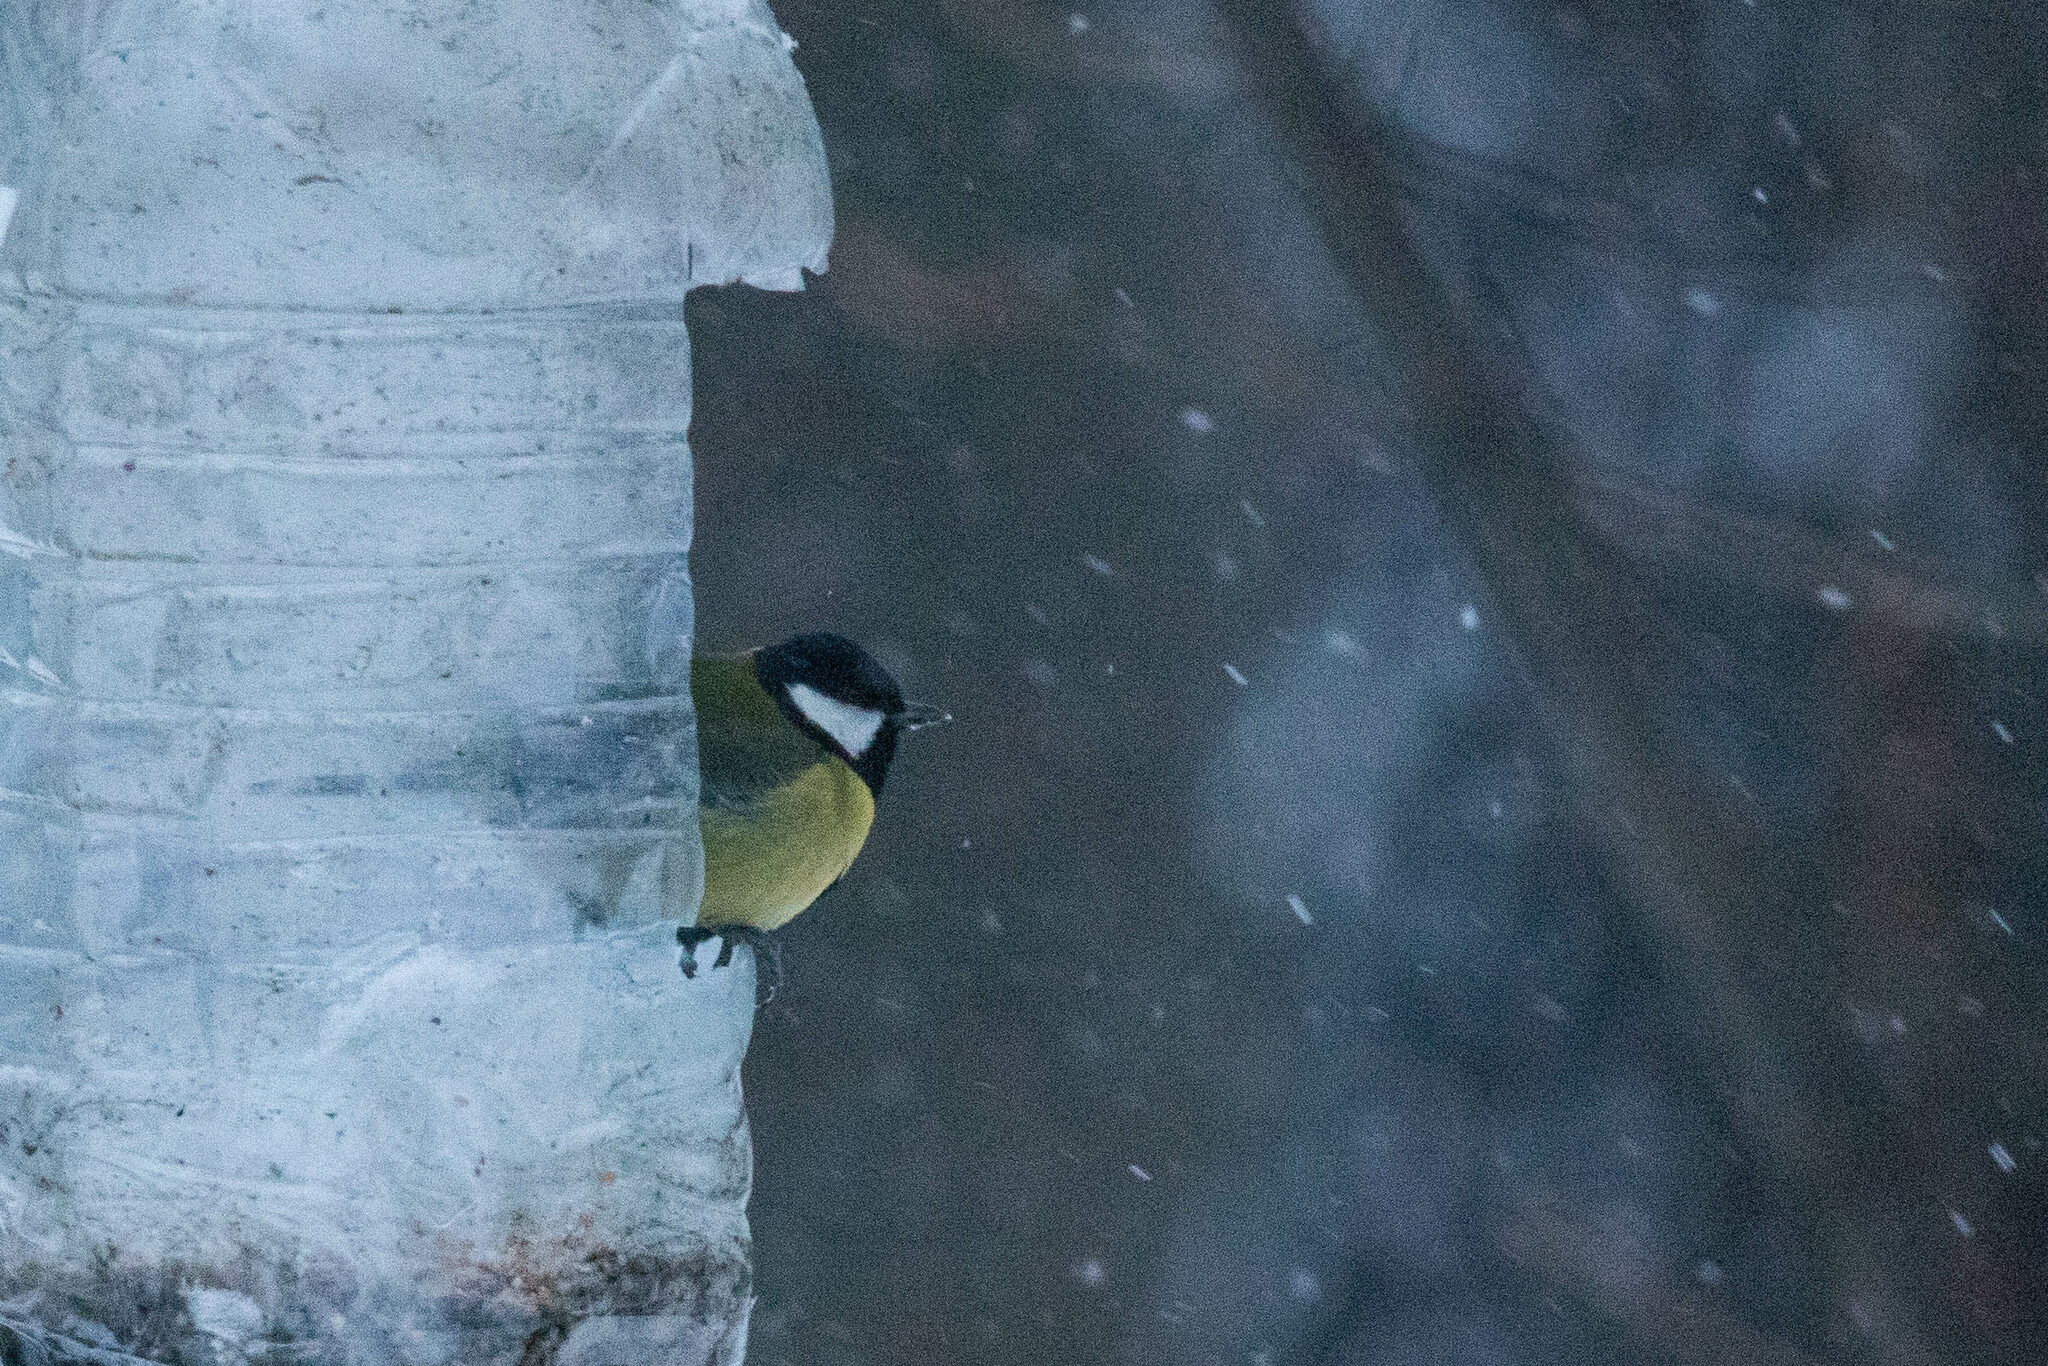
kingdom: Animalia
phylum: Chordata
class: Aves
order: Passeriformes
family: Paridae
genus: Parus
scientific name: Parus major
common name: Great tit
